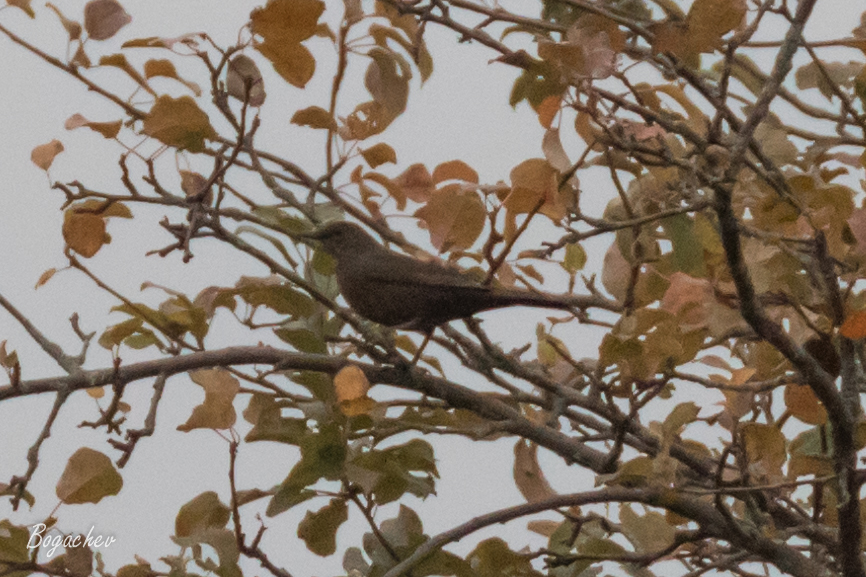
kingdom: Animalia
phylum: Chordata
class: Aves
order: Passeriformes
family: Turdidae
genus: Turdus
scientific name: Turdus merula
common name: Common blackbird
